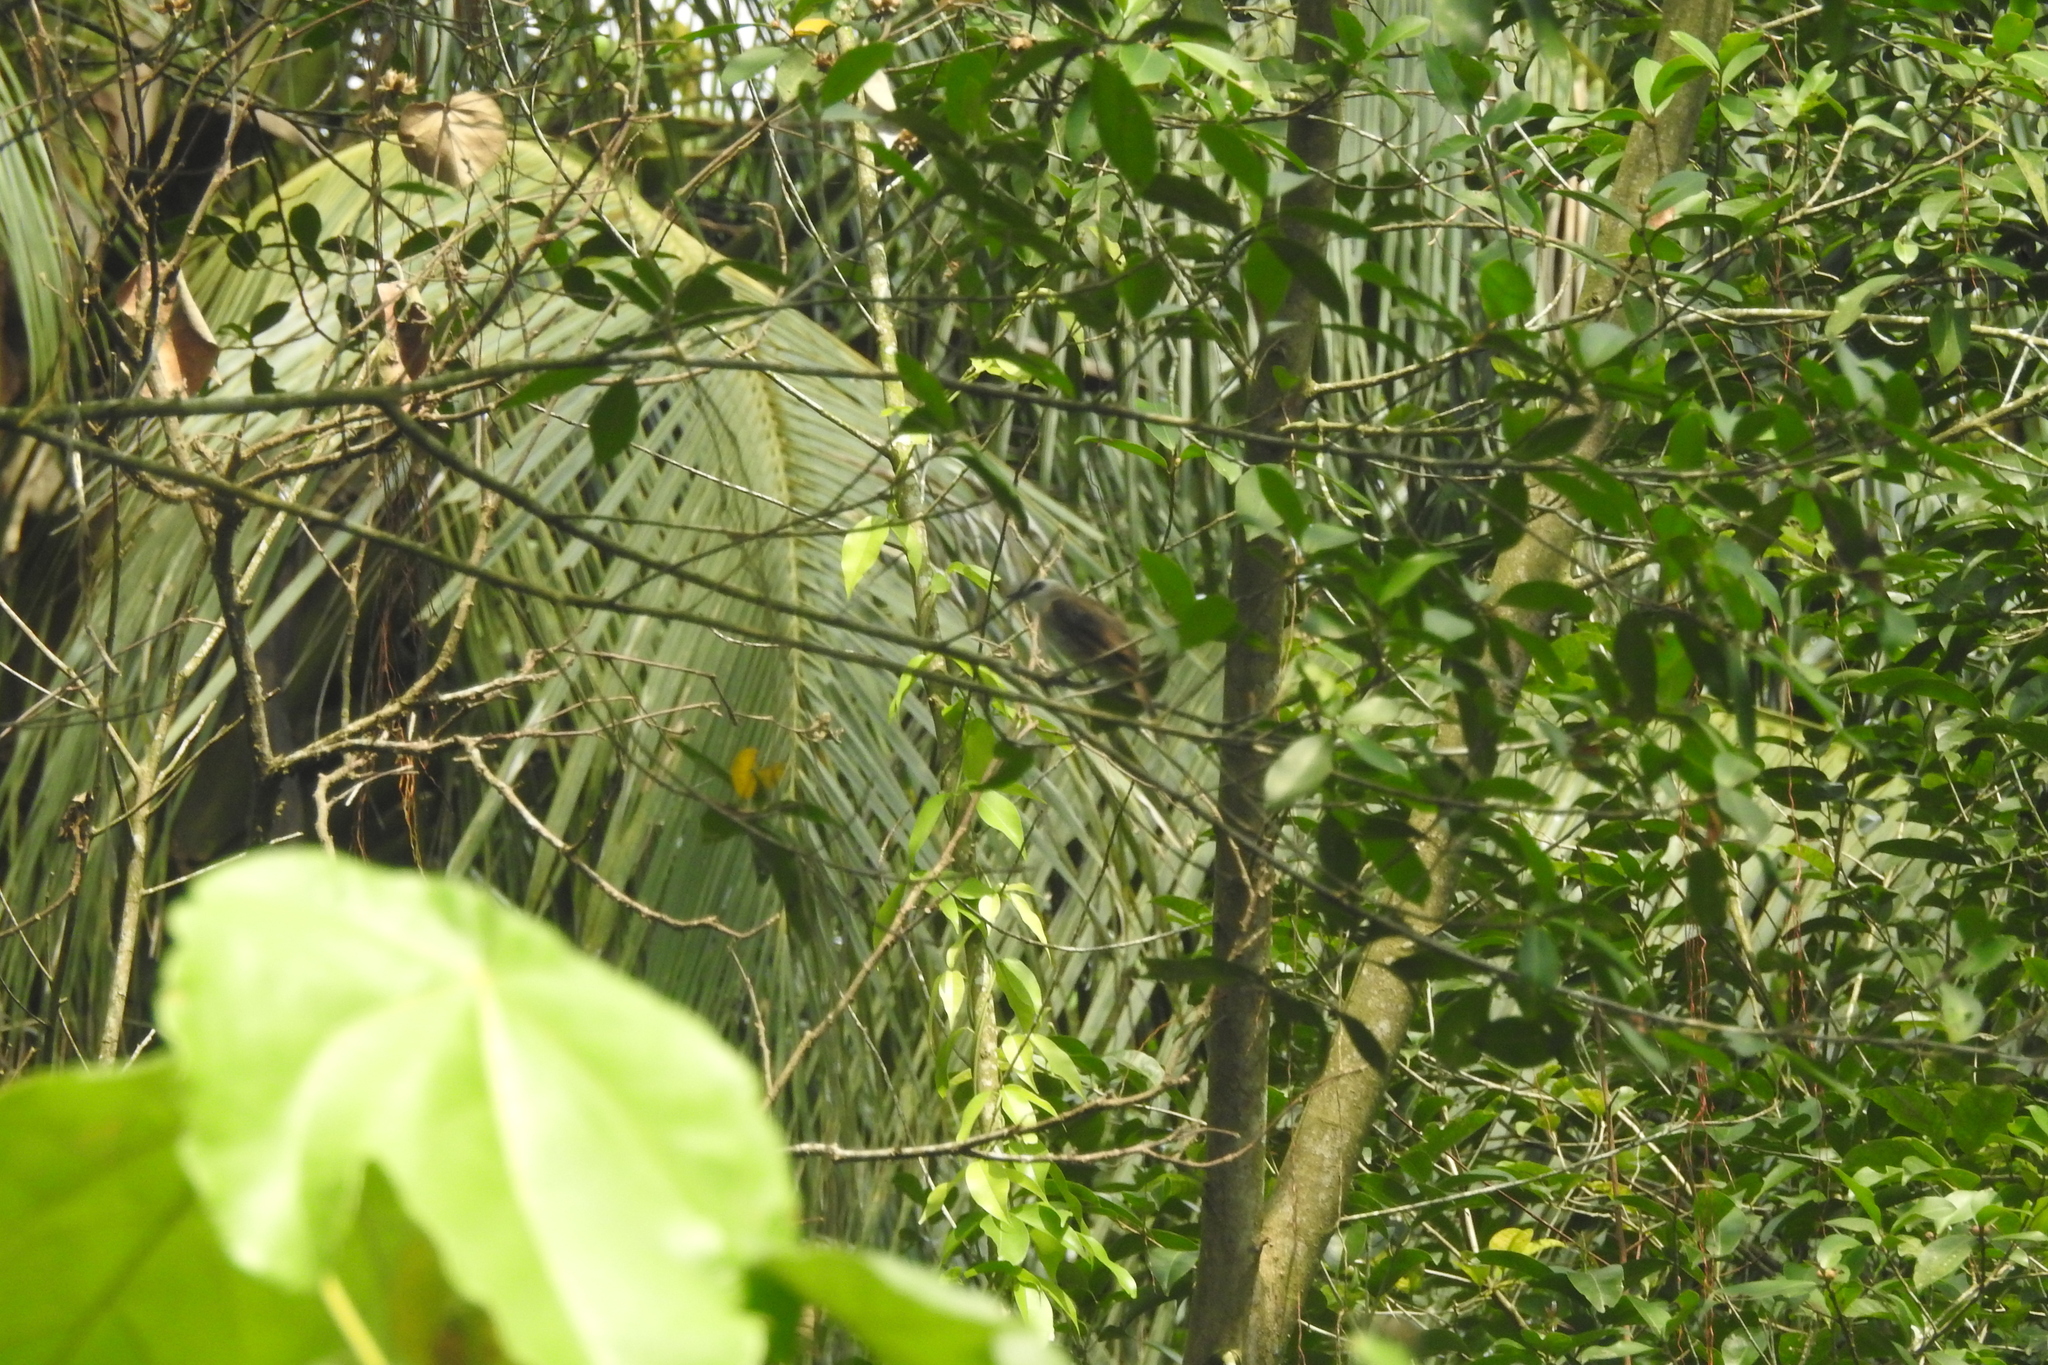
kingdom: Animalia
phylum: Chordata
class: Aves
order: Passeriformes
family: Pycnonotidae
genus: Pycnonotus
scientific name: Pycnonotus goiavier
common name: Yellow-vented bulbul
